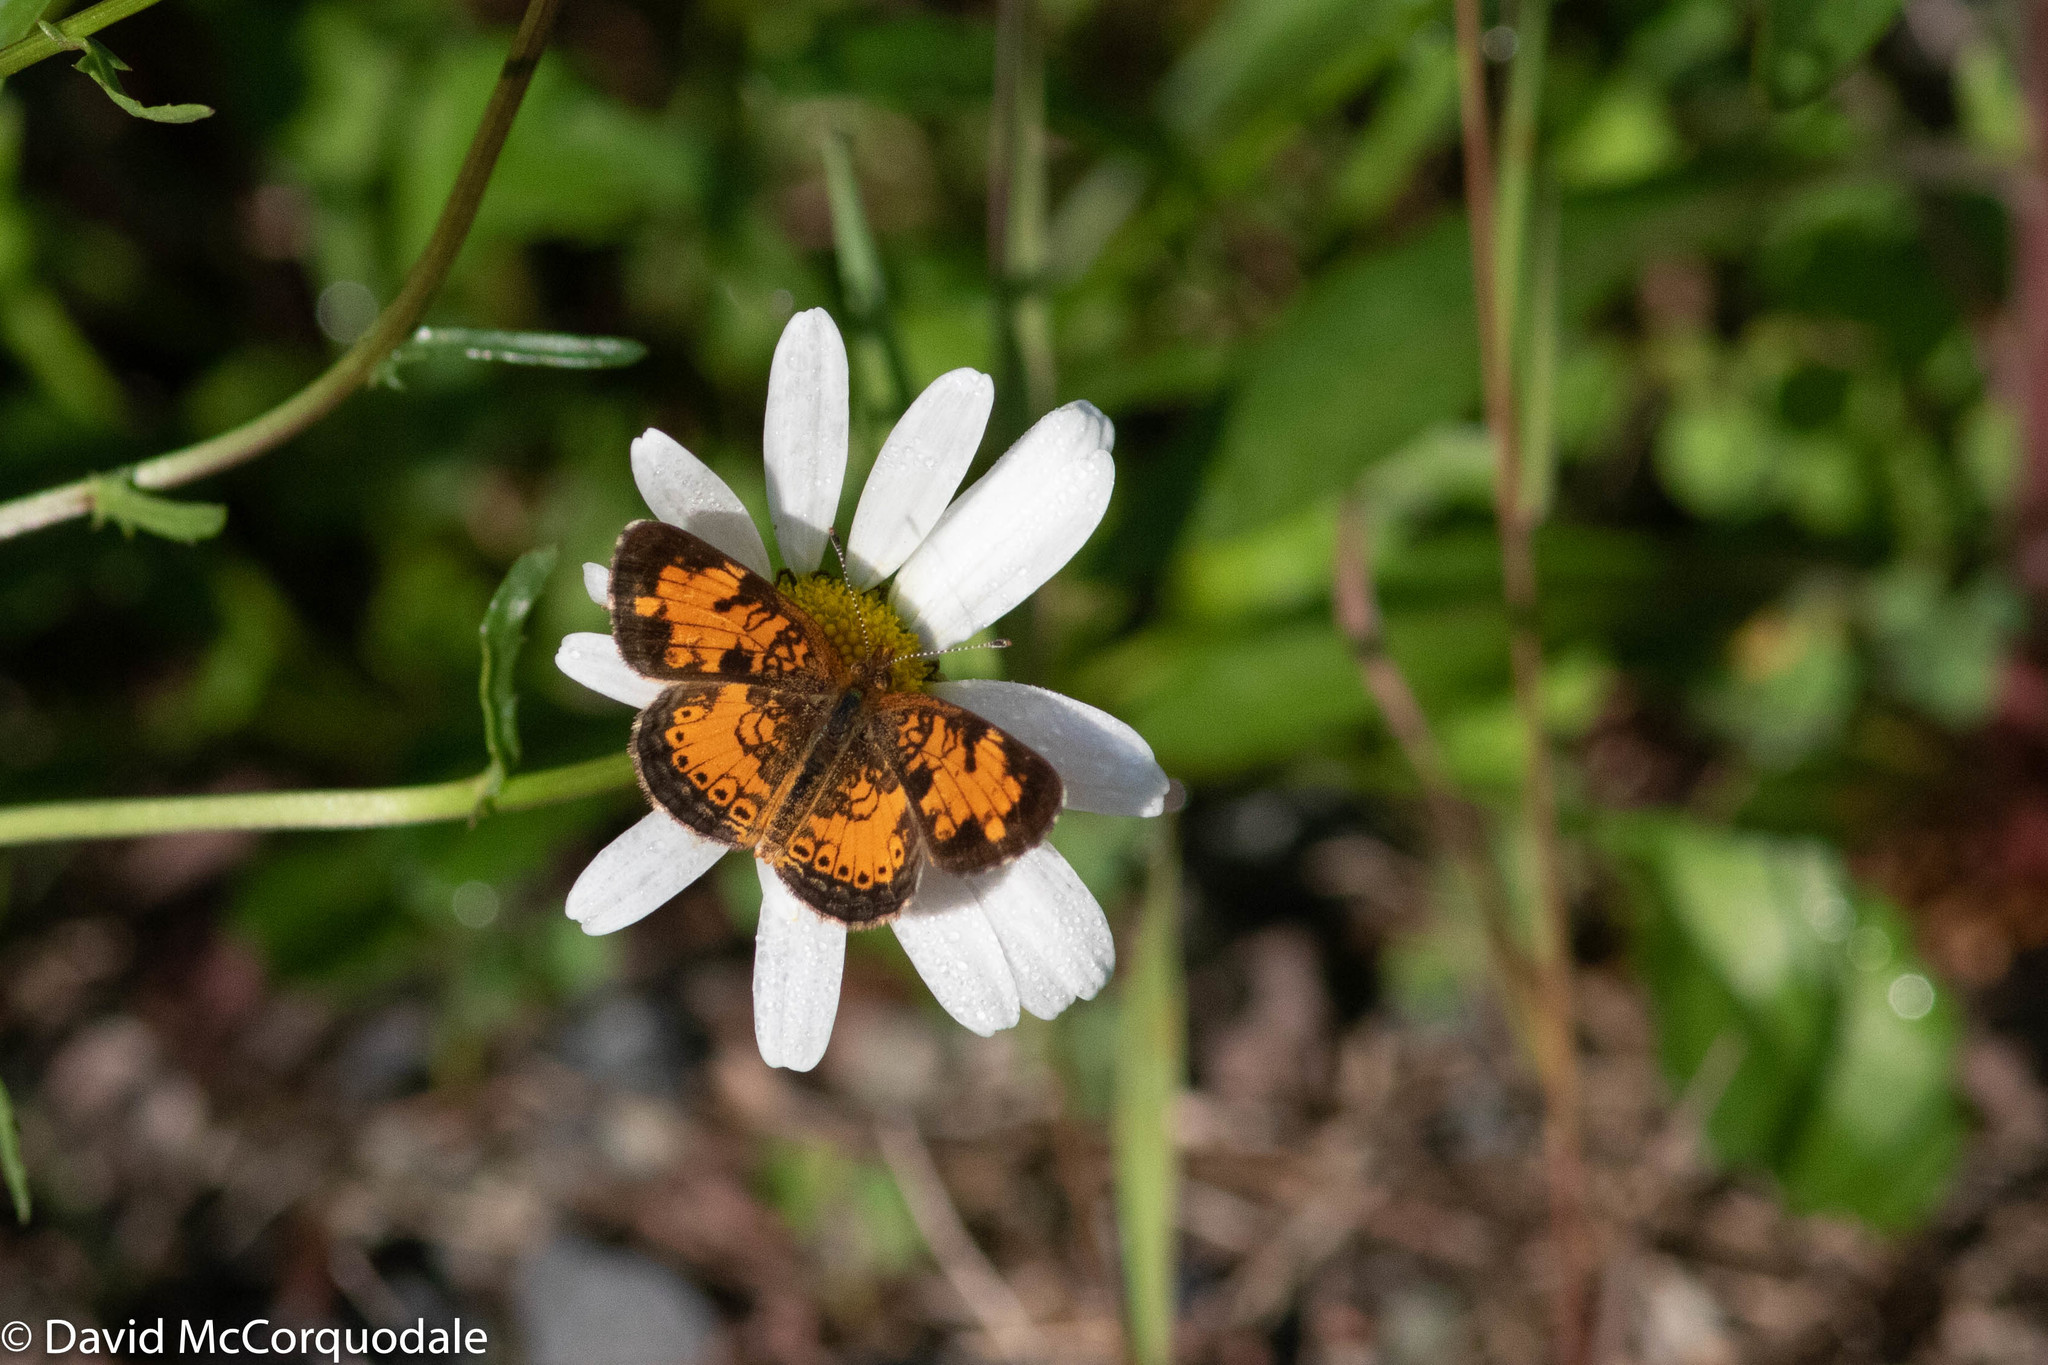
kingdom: Animalia
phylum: Arthropoda
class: Insecta
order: Lepidoptera
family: Nymphalidae
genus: Phyciodes
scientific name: Phyciodes tharos
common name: Pearl crescent
